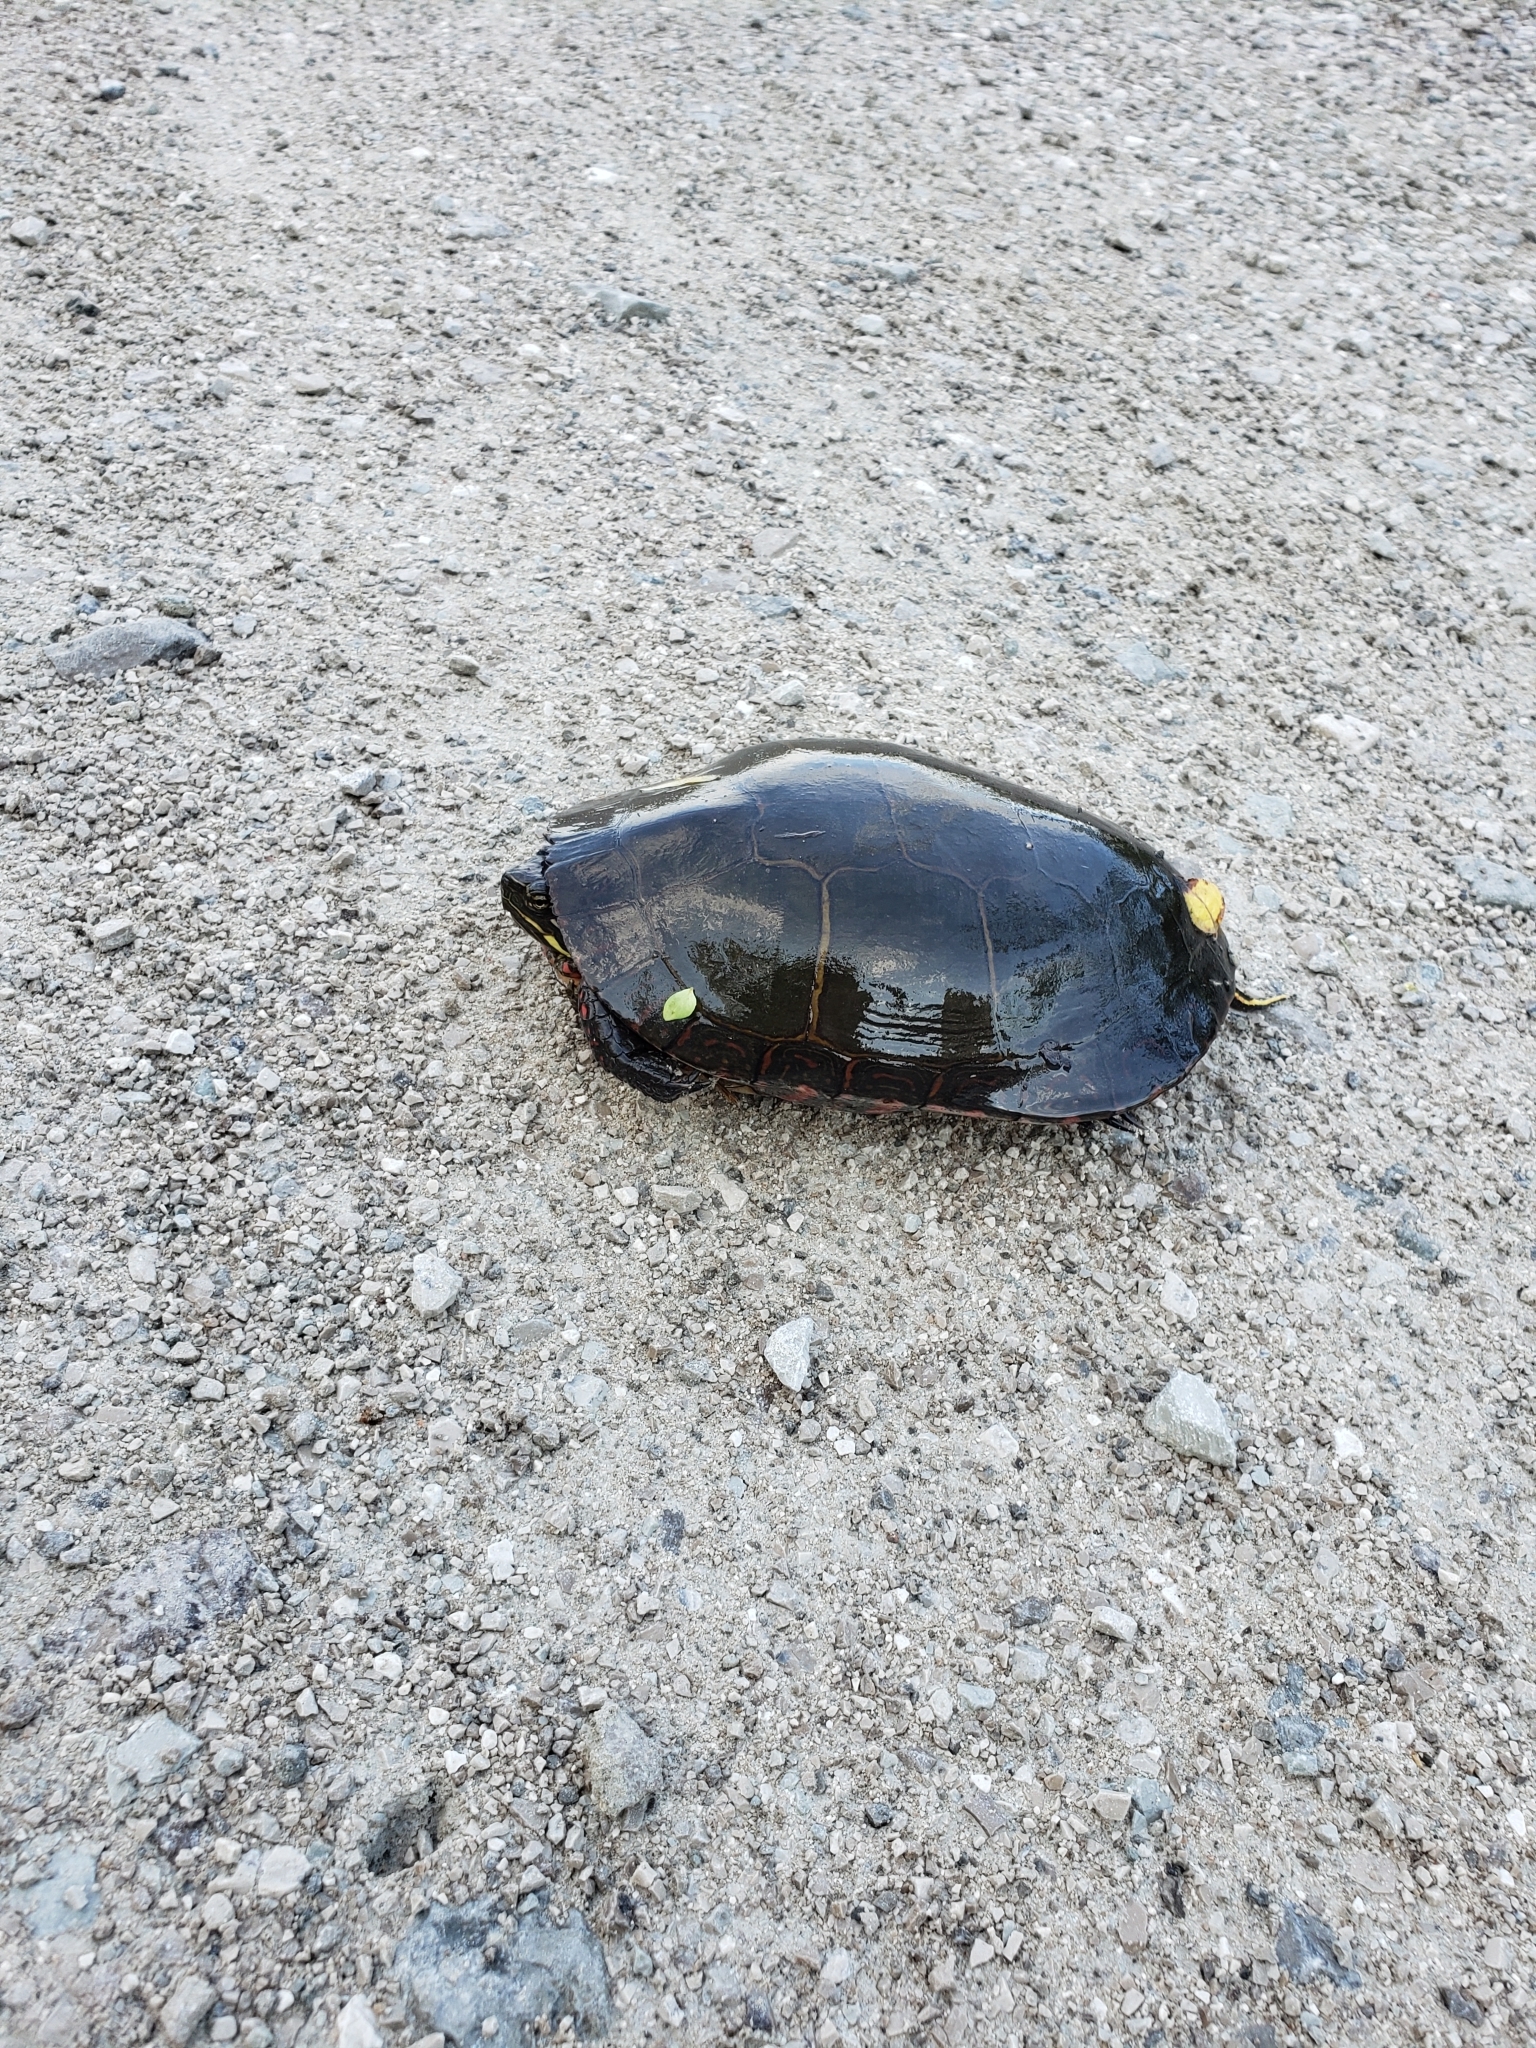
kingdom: Animalia
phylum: Chordata
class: Testudines
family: Emydidae
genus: Chrysemys
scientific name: Chrysemys picta
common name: Painted turtle
